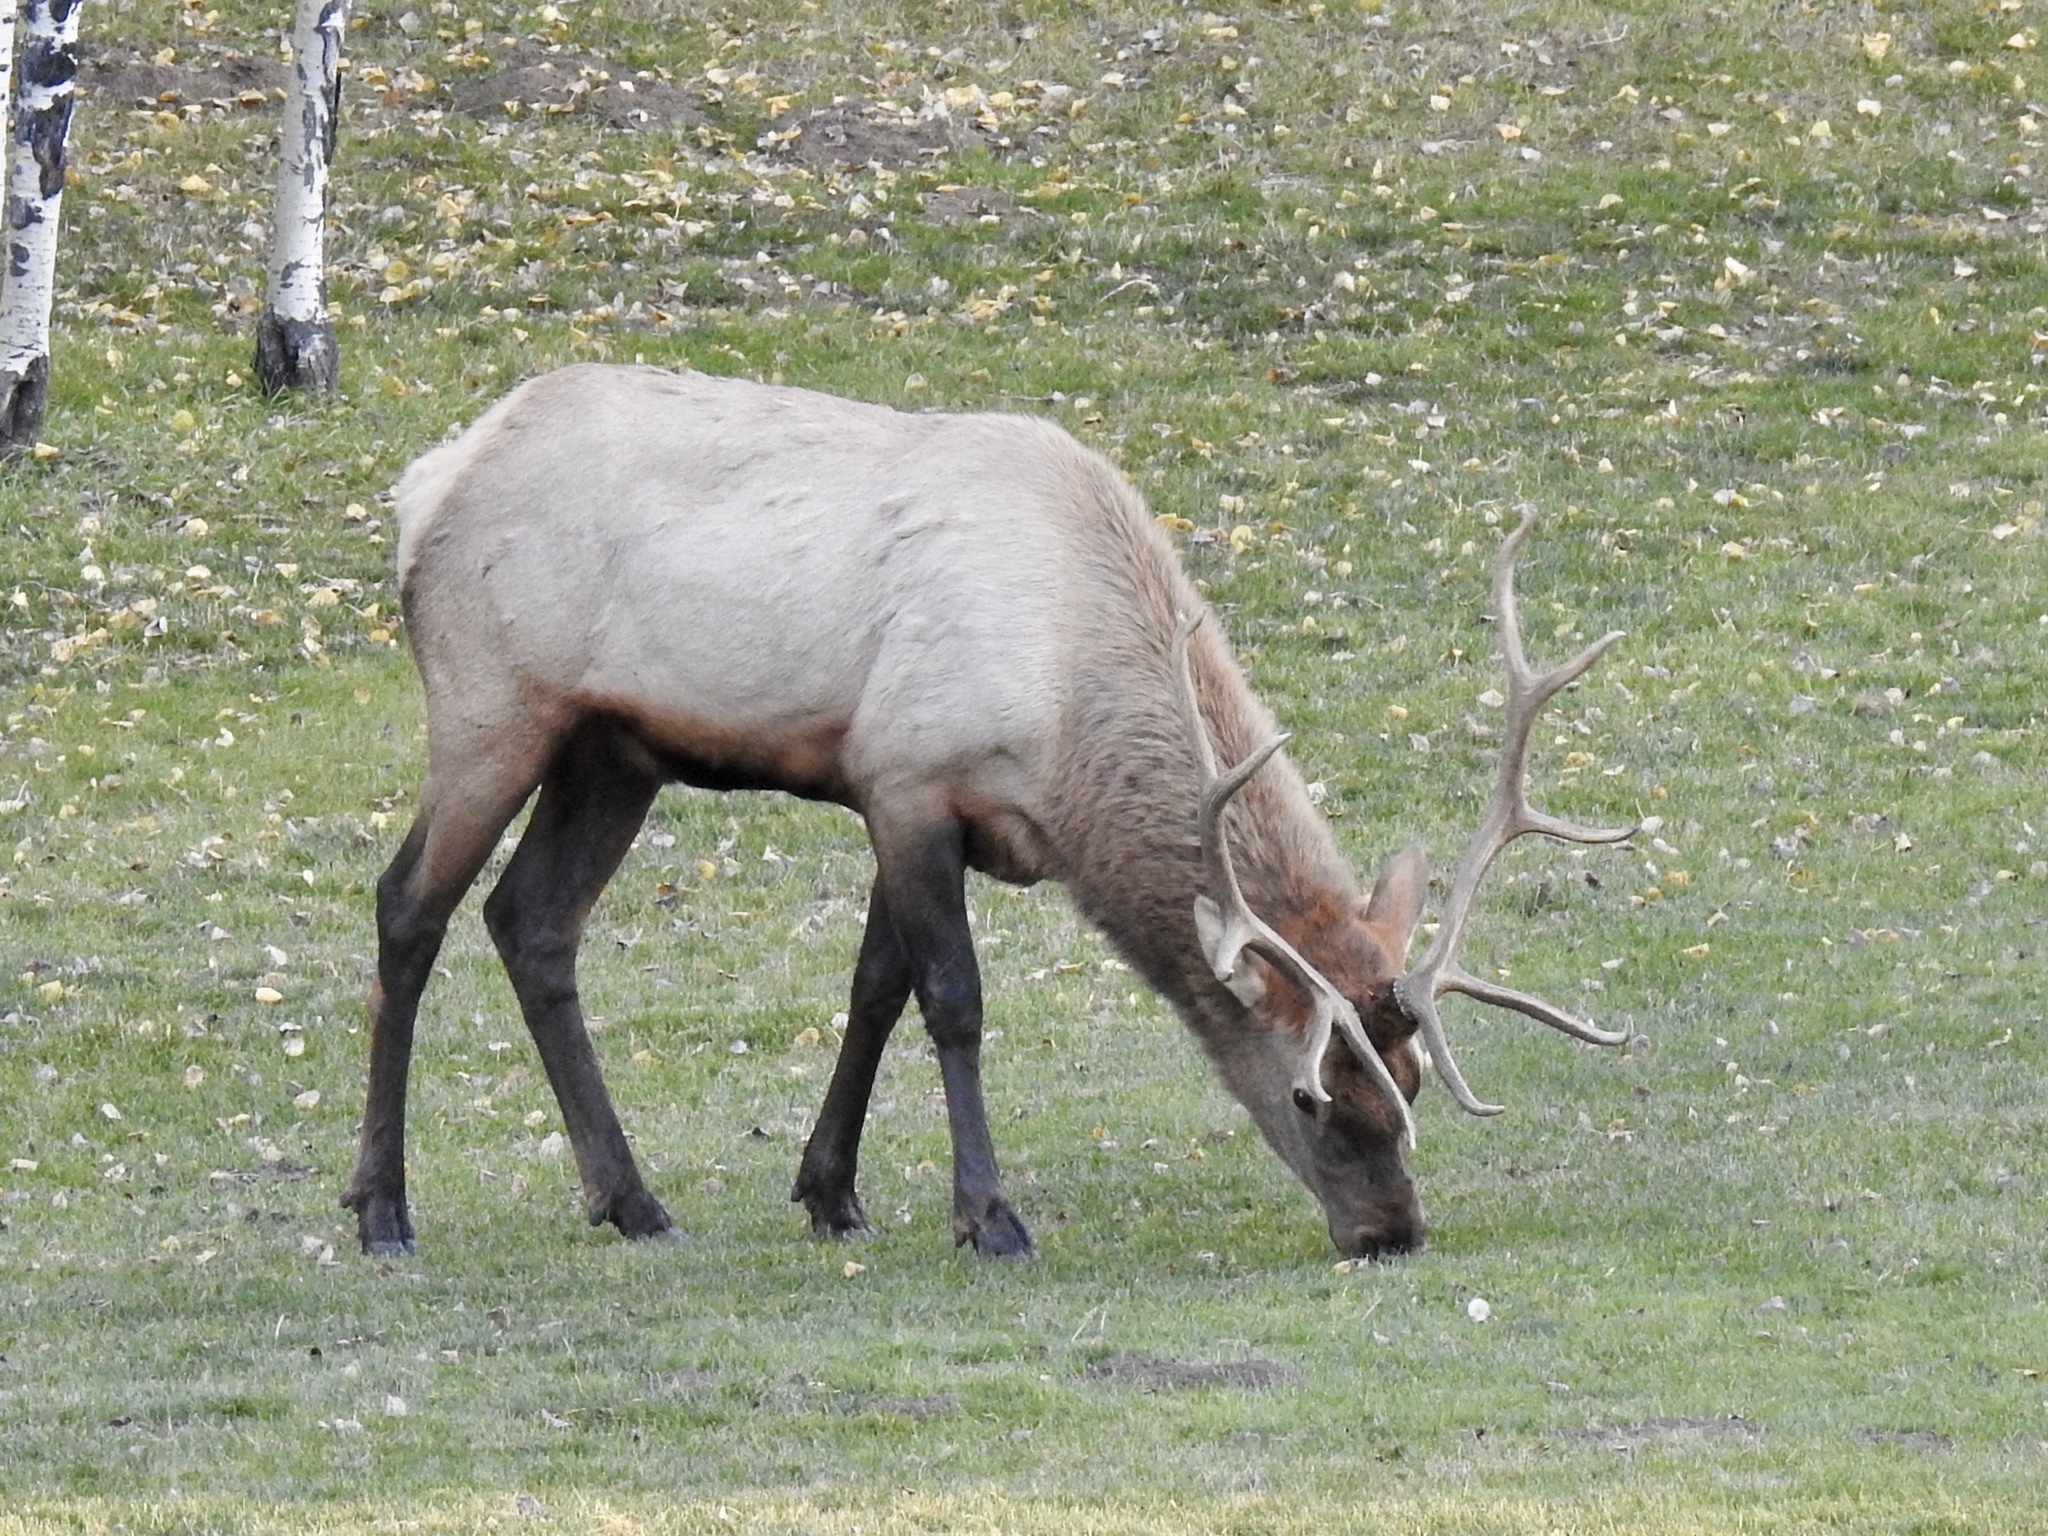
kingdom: Animalia
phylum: Chordata
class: Mammalia
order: Artiodactyla
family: Cervidae
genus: Cervus
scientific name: Cervus elaphus
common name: Red deer
